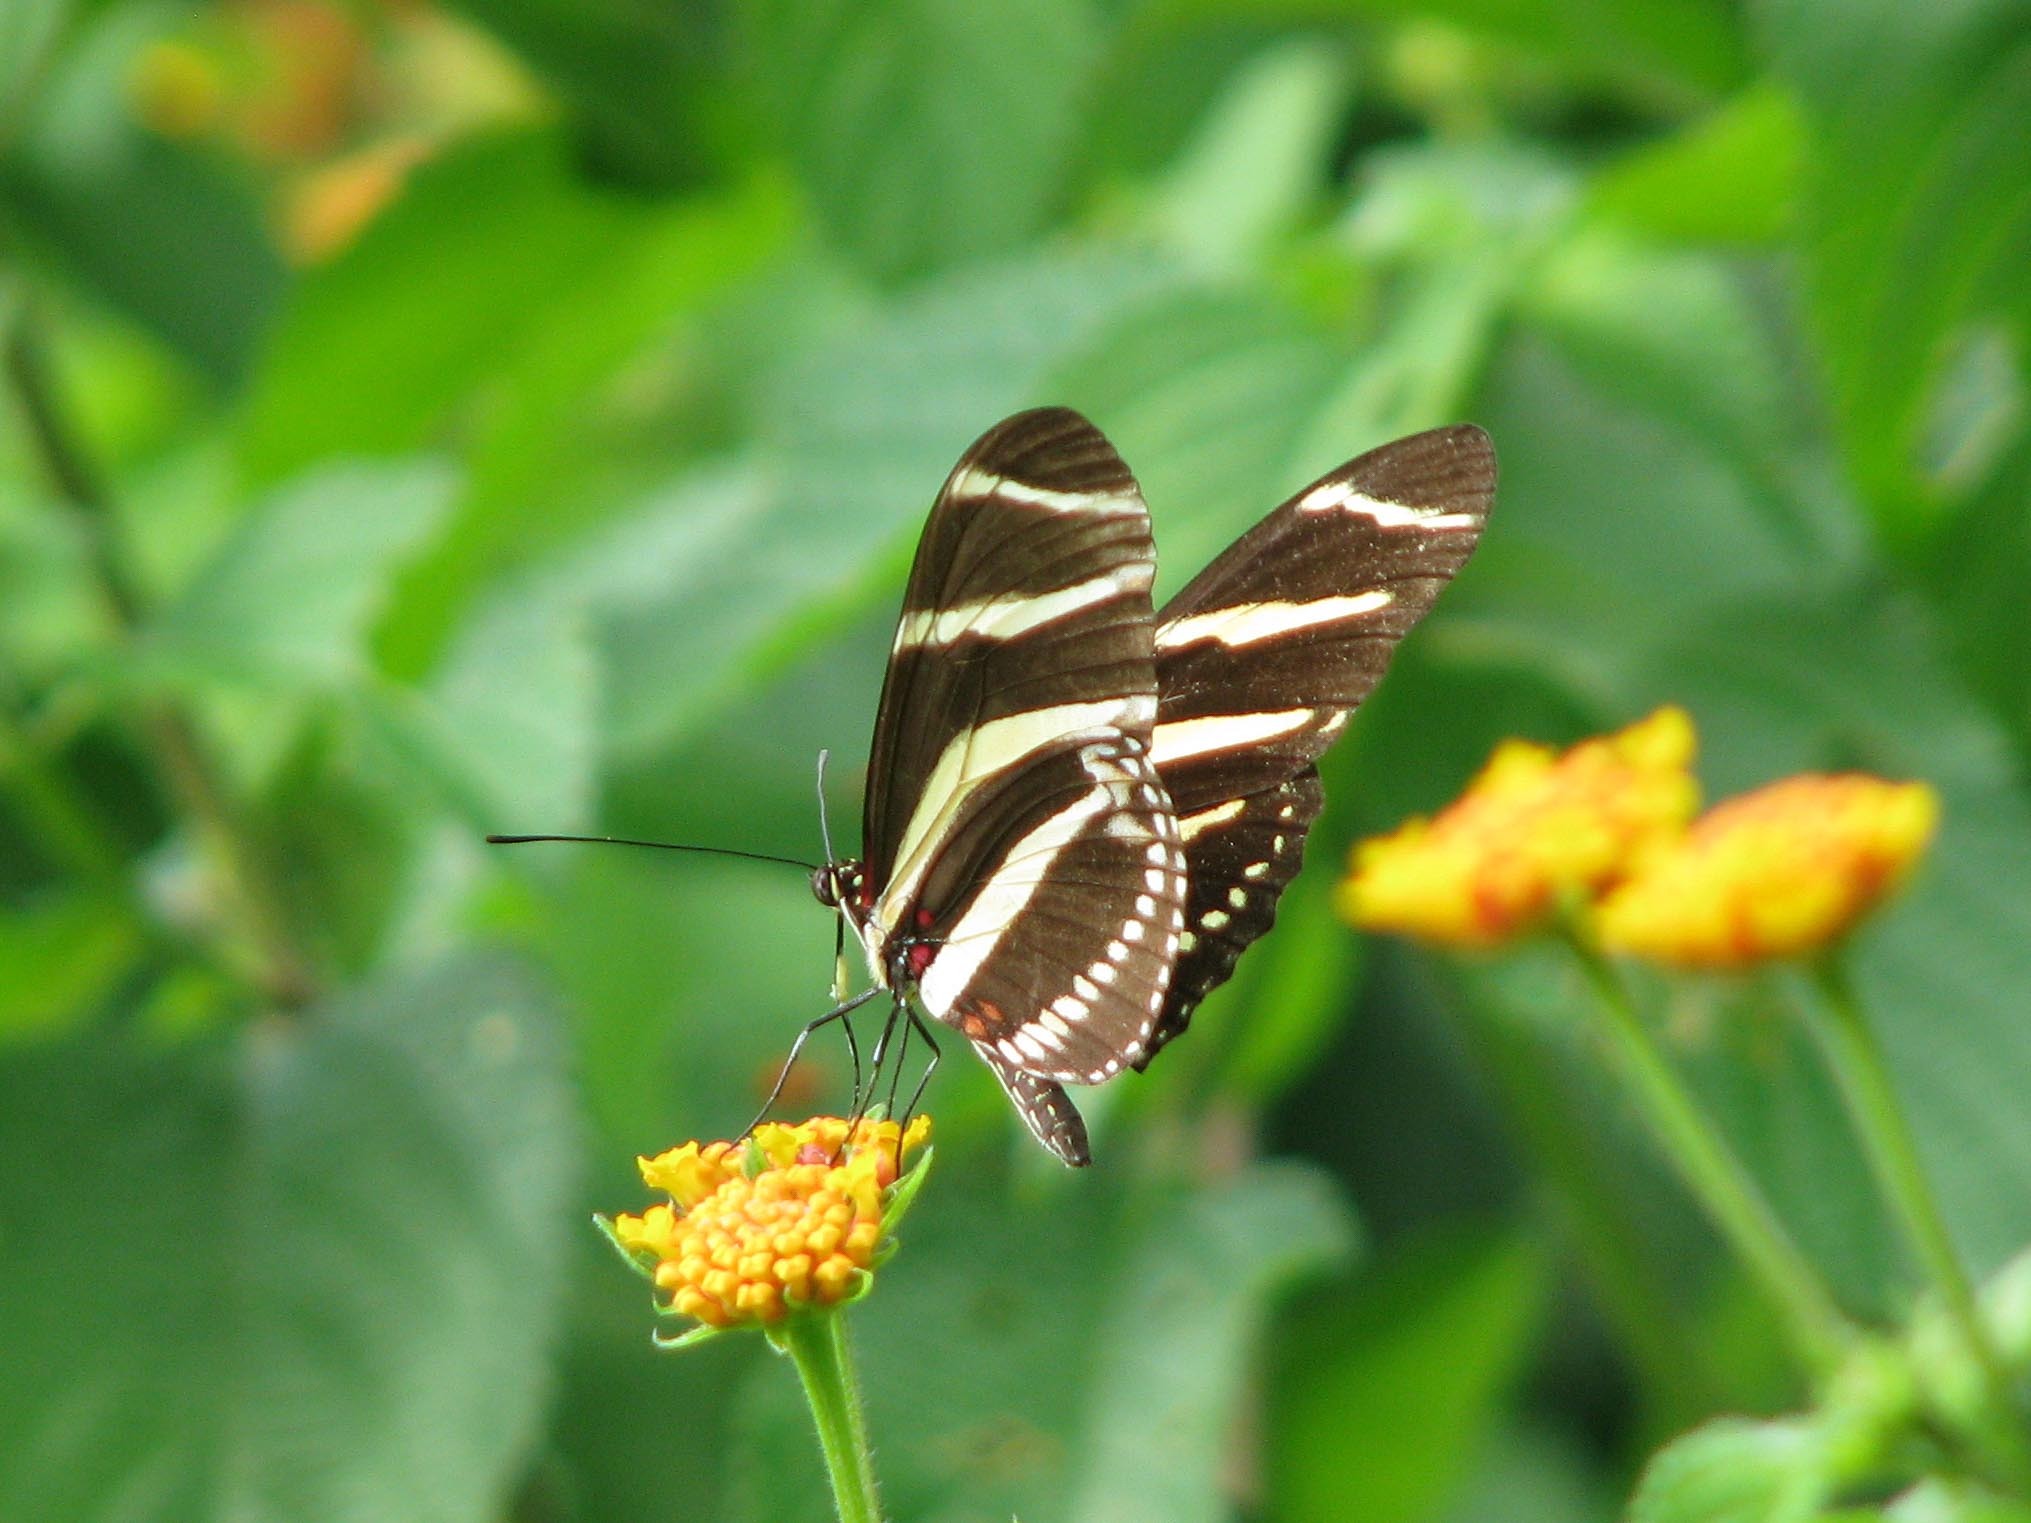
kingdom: Animalia
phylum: Arthropoda
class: Insecta
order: Lepidoptera
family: Nymphalidae
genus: Heliconius
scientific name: Heliconius charithonia
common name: Zebra long wing
